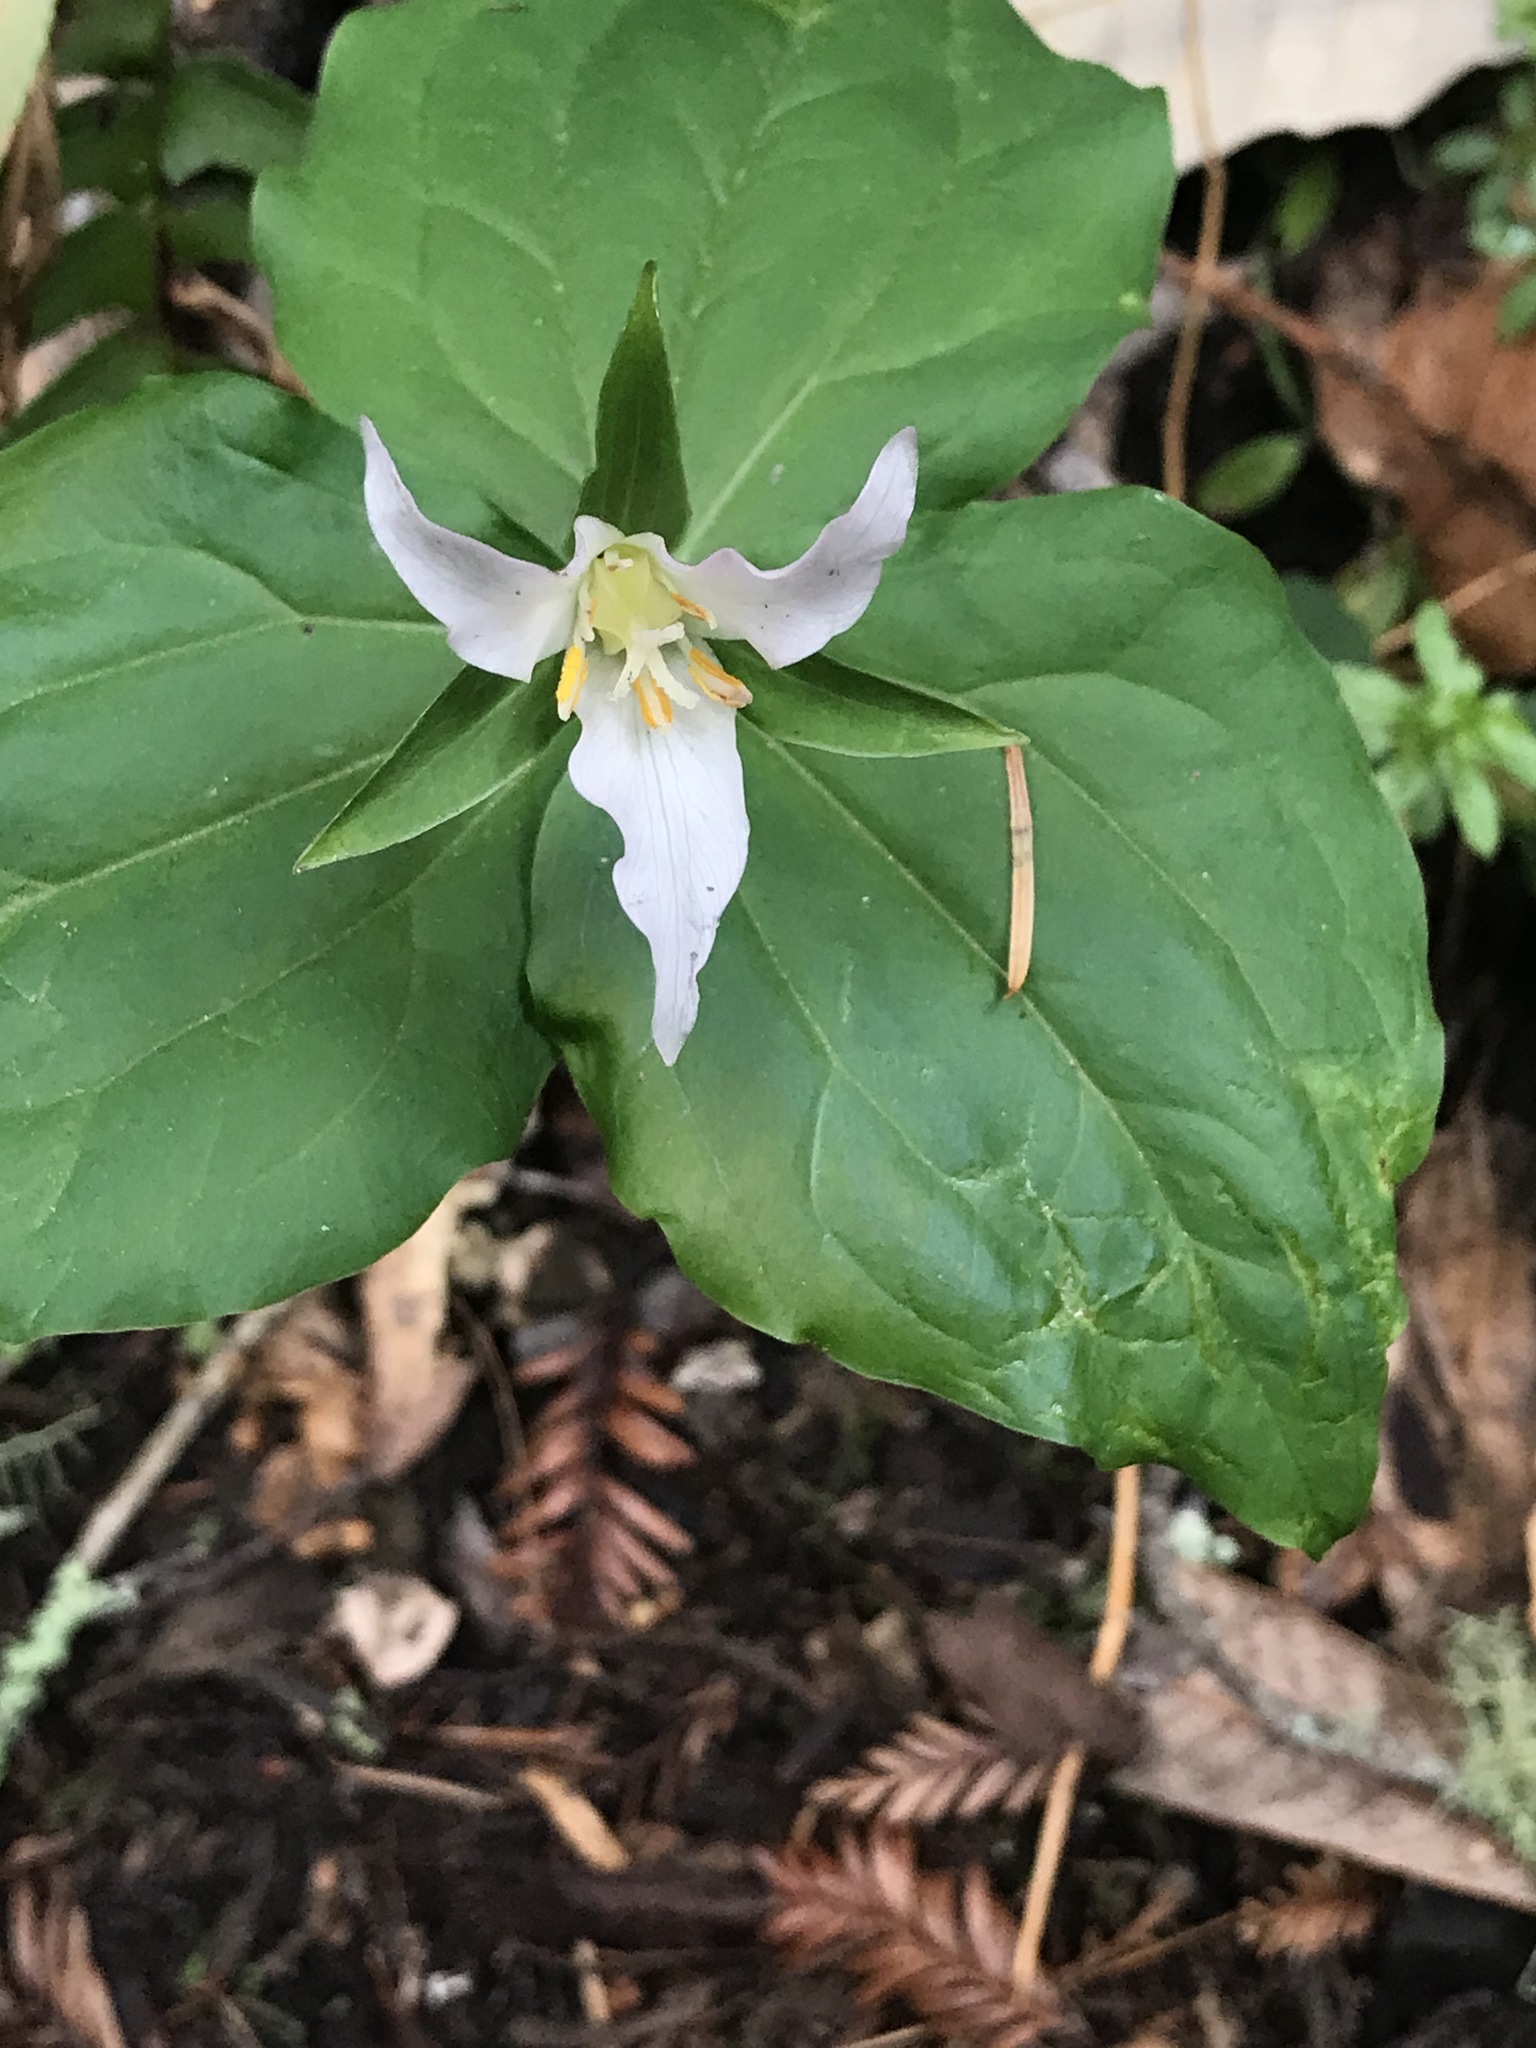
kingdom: Plantae
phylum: Tracheophyta
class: Liliopsida
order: Liliales
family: Melanthiaceae
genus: Trillium
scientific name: Trillium ovatum
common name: Pacific trillium
